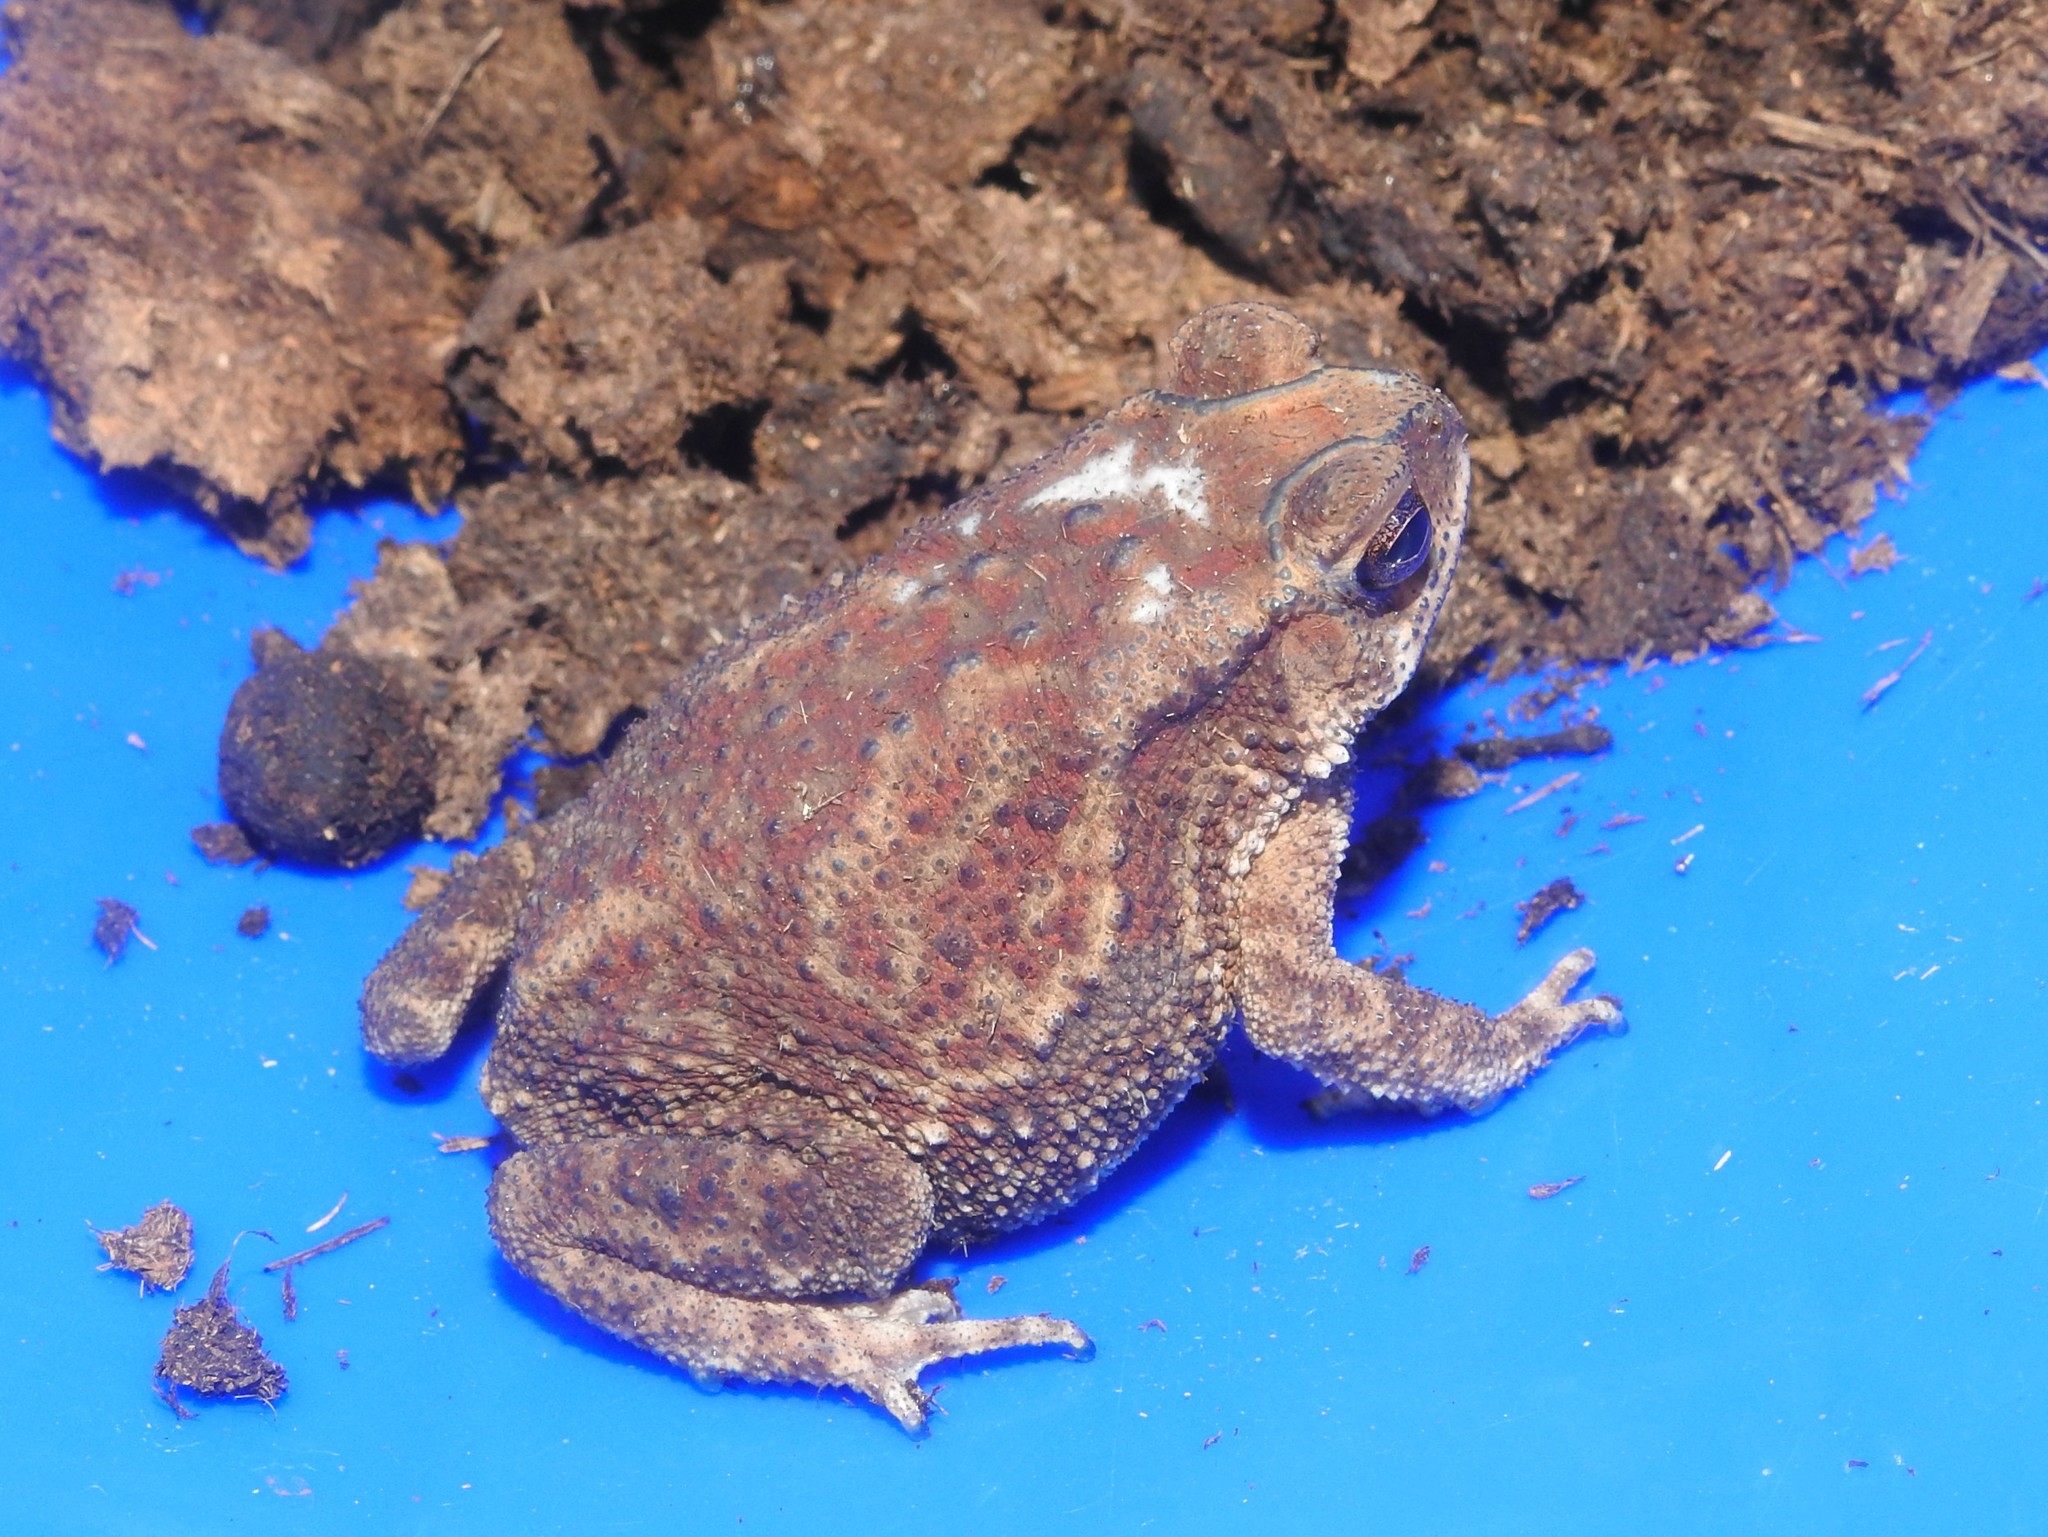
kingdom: Animalia
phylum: Chordata
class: Amphibia
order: Anura
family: Bufonidae
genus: Duttaphrynus
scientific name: Duttaphrynus melanostictus
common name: Common sunda toad
